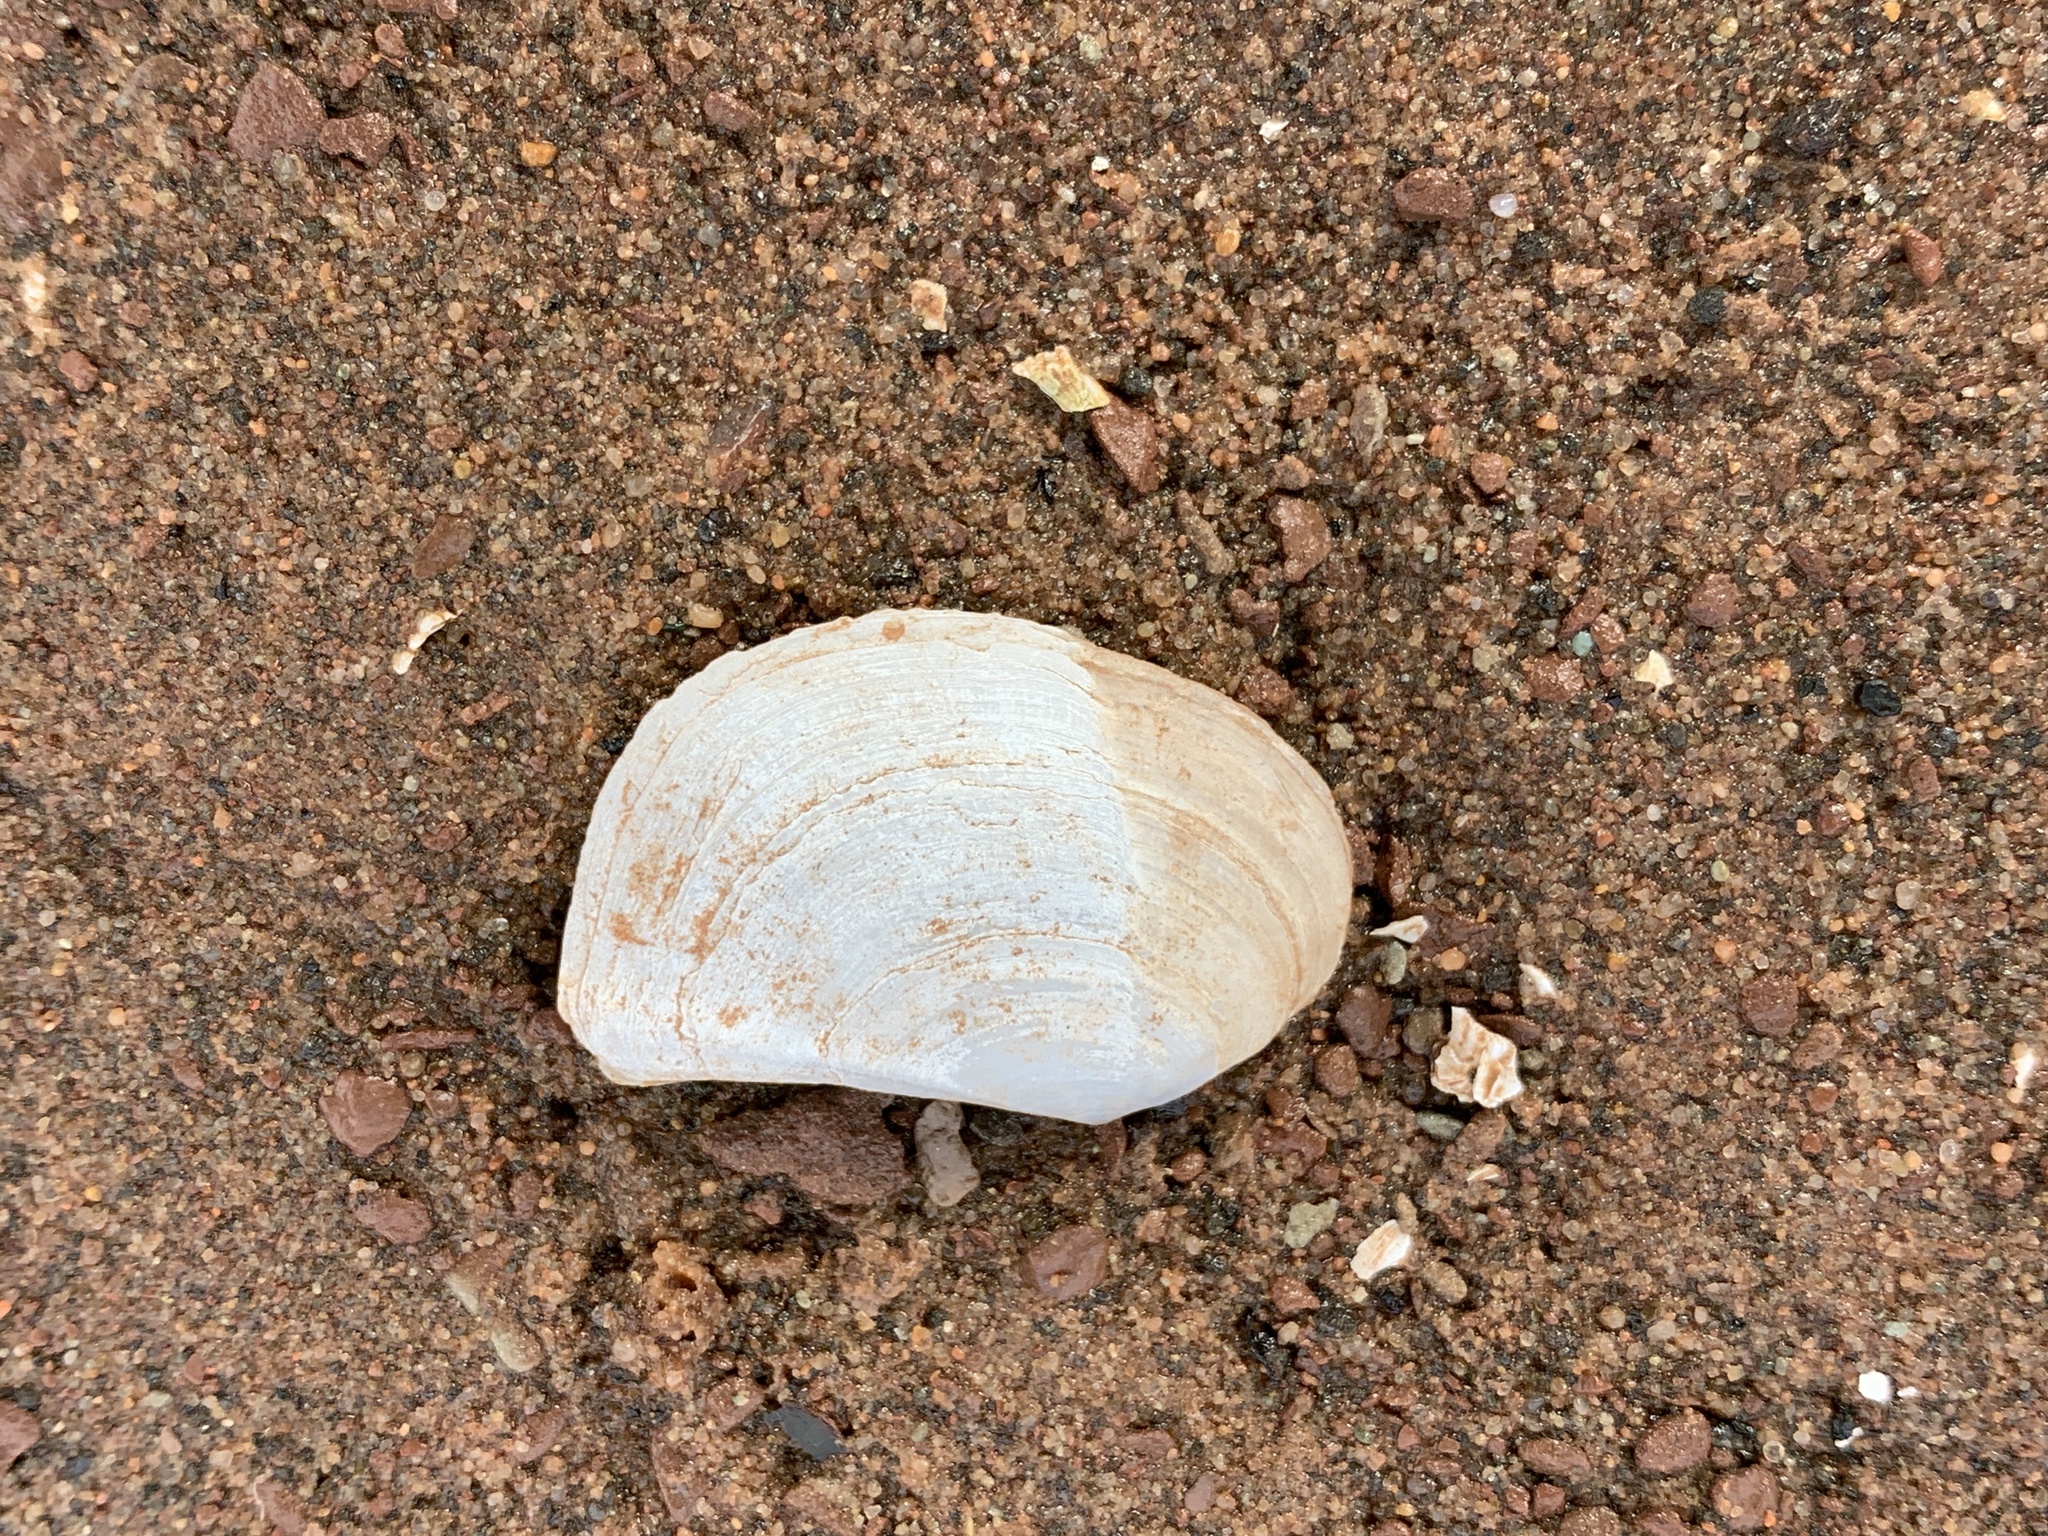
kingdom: Animalia
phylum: Mollusca
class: Bivalvia
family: Pandoridae
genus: Pandora
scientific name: Pandora gouldiana
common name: Rounded pandora
